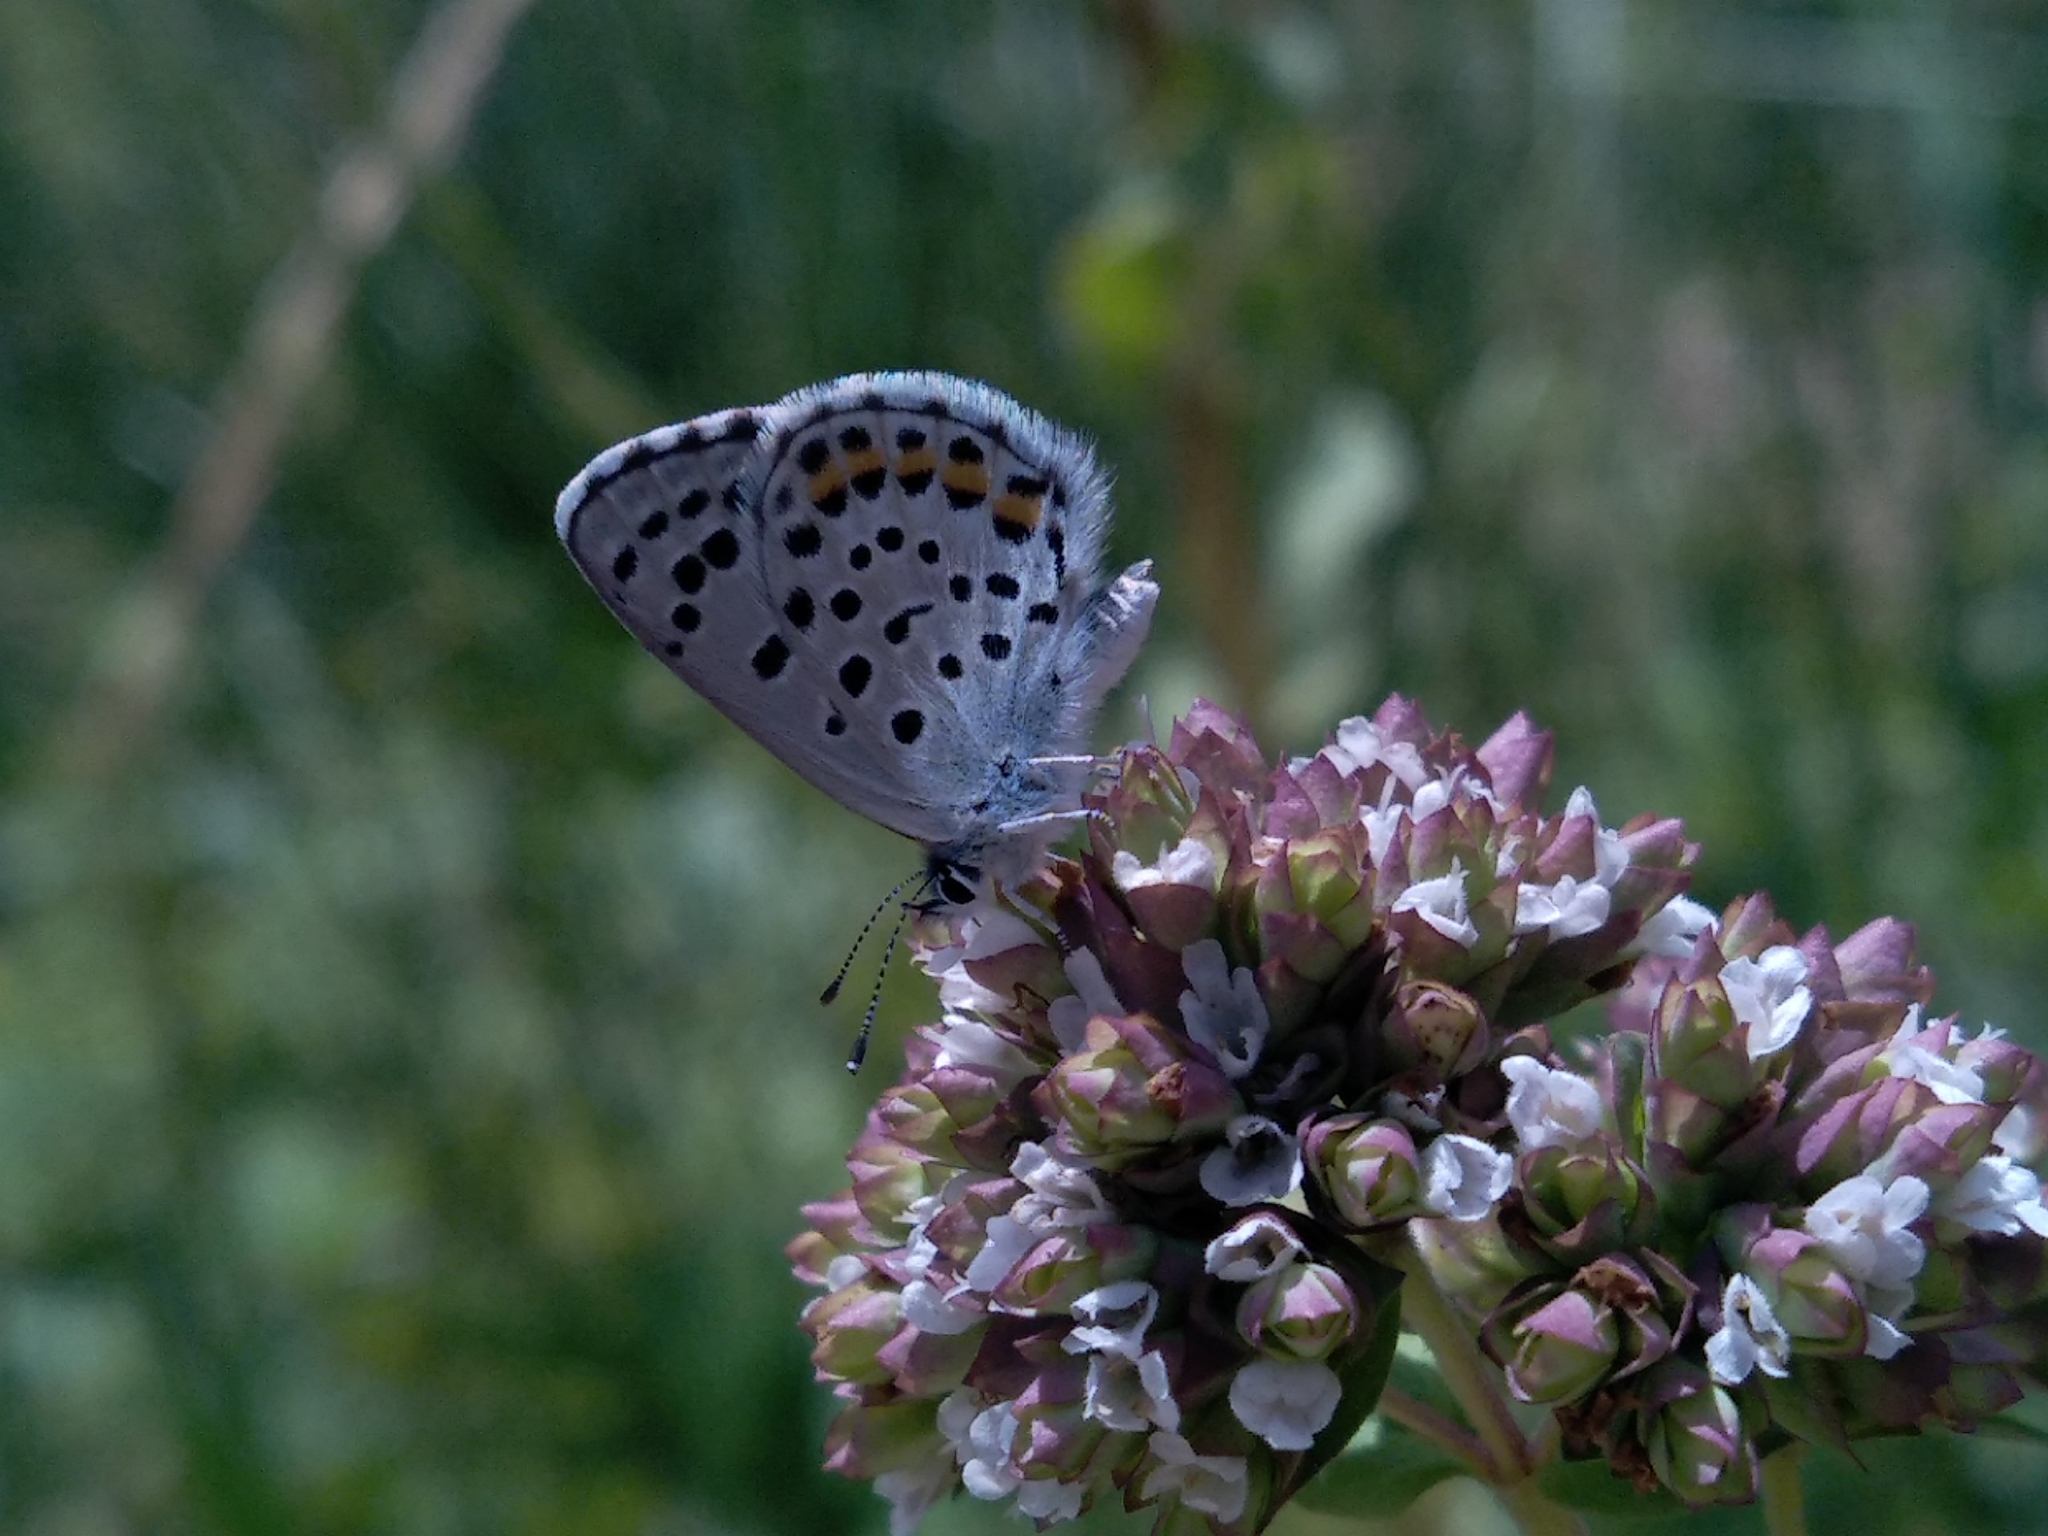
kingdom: Animalia
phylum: Arthropoda
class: Insecta
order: Lepidoptera
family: Lycaenidae
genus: Pseudophilotes
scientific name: Pseudophilotes baton
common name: Baton blue
